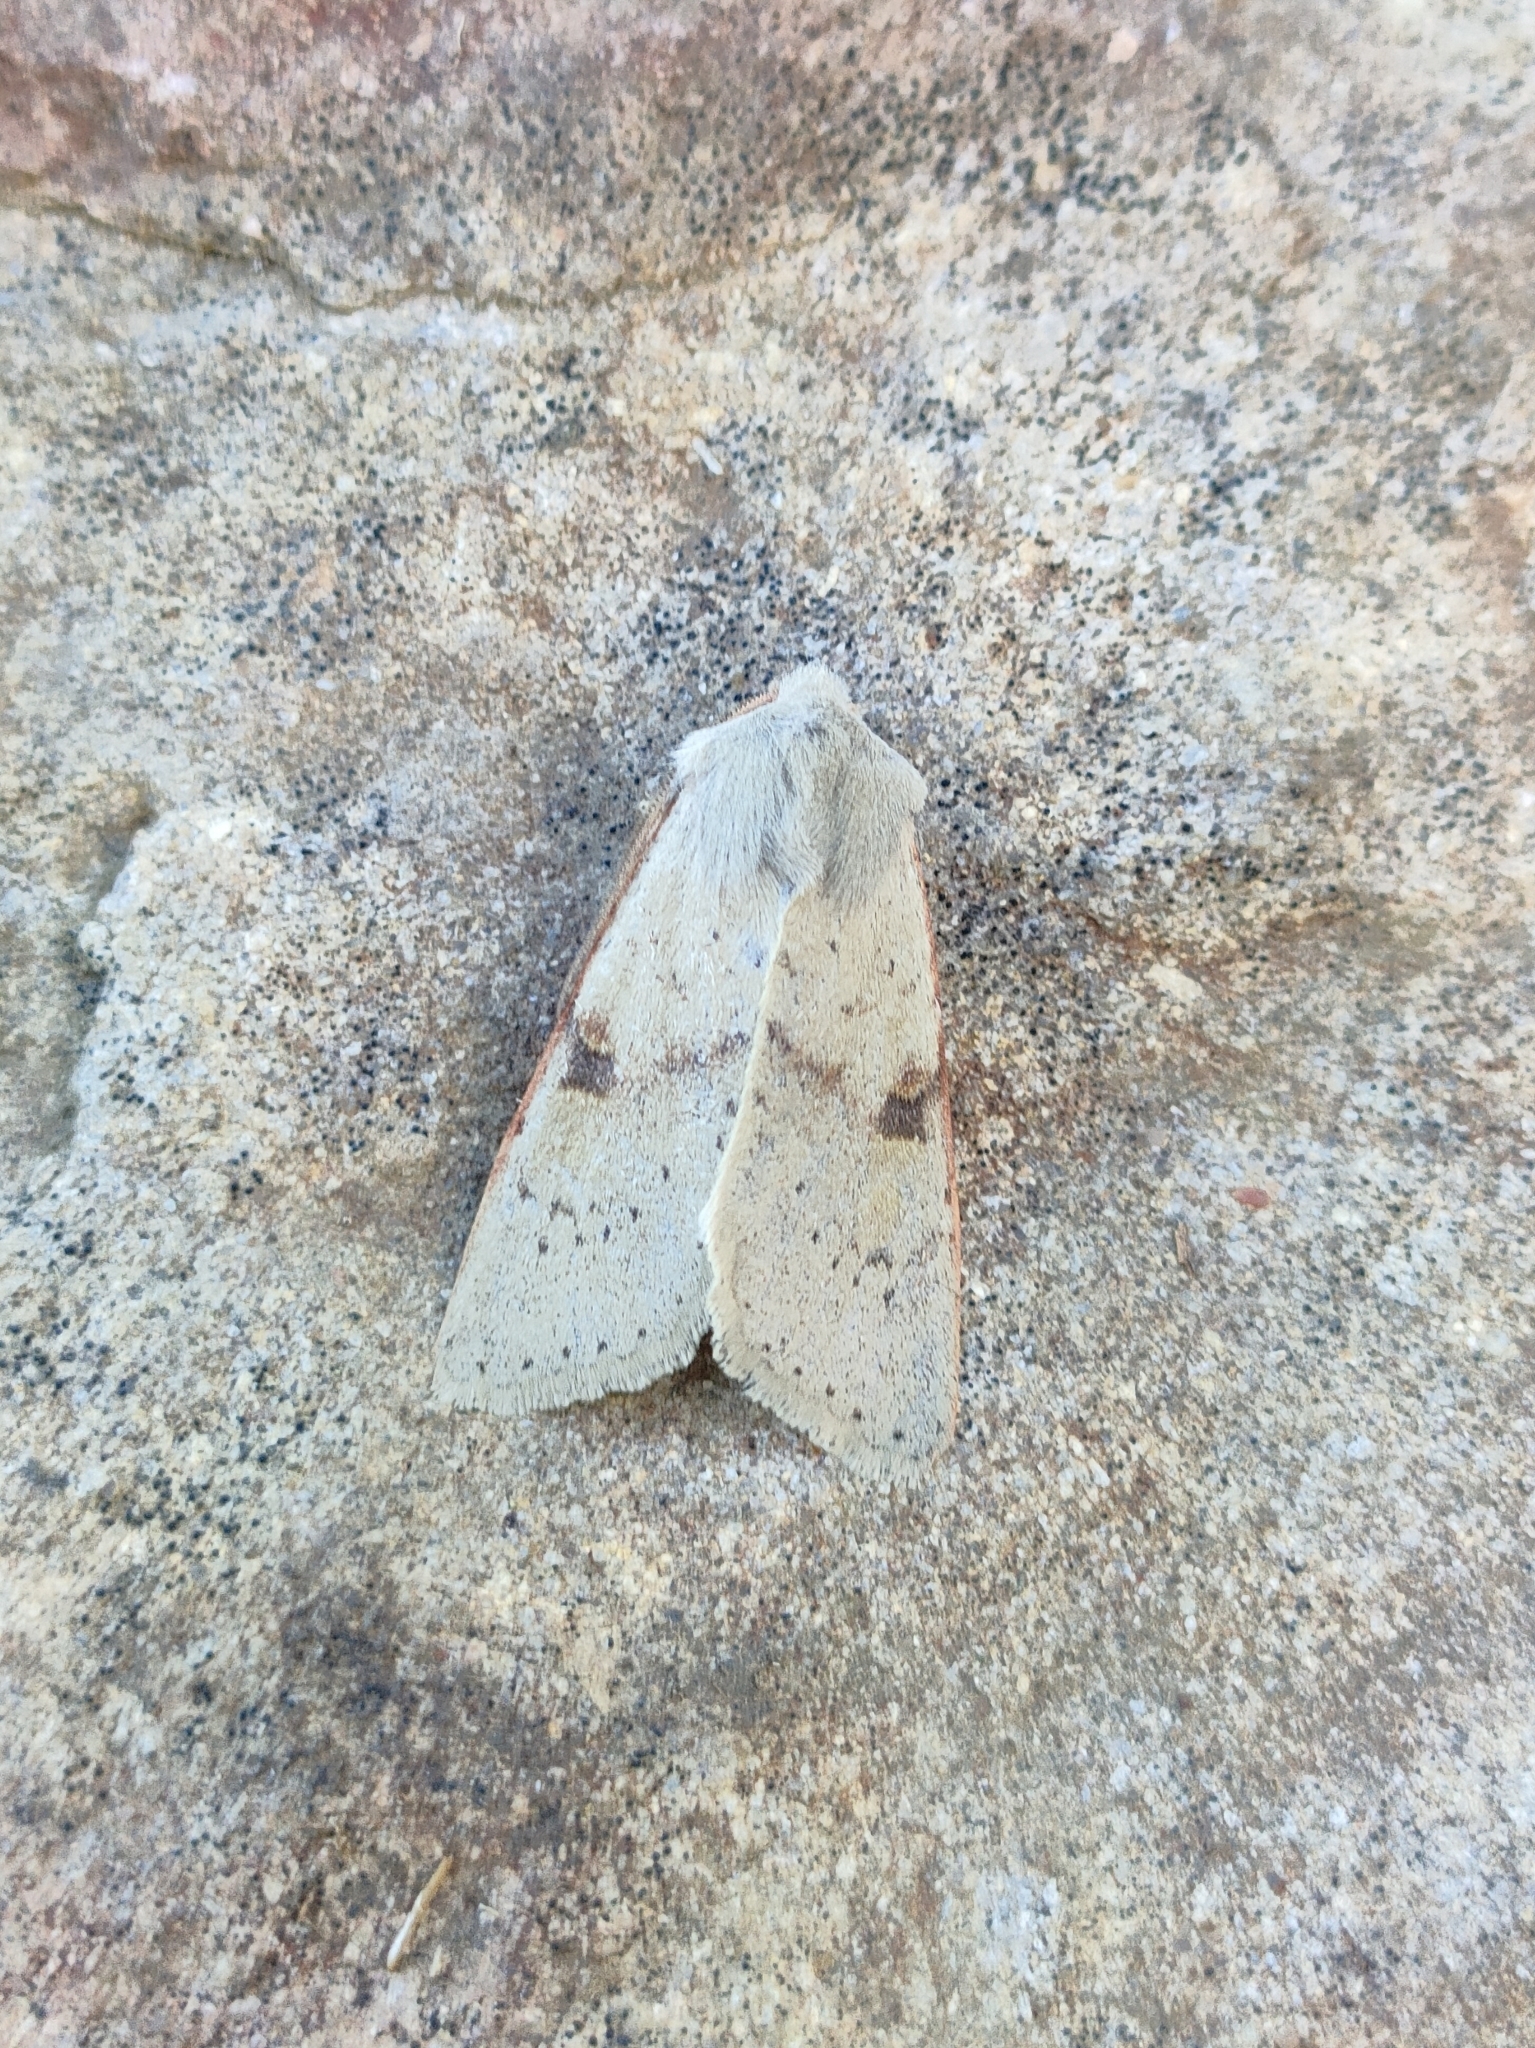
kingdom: Animalia
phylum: Arthropoda
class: Insecta
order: Lepidoptera
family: Noctuidae
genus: Ammopolia
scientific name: Ammopolia witzenmanni
